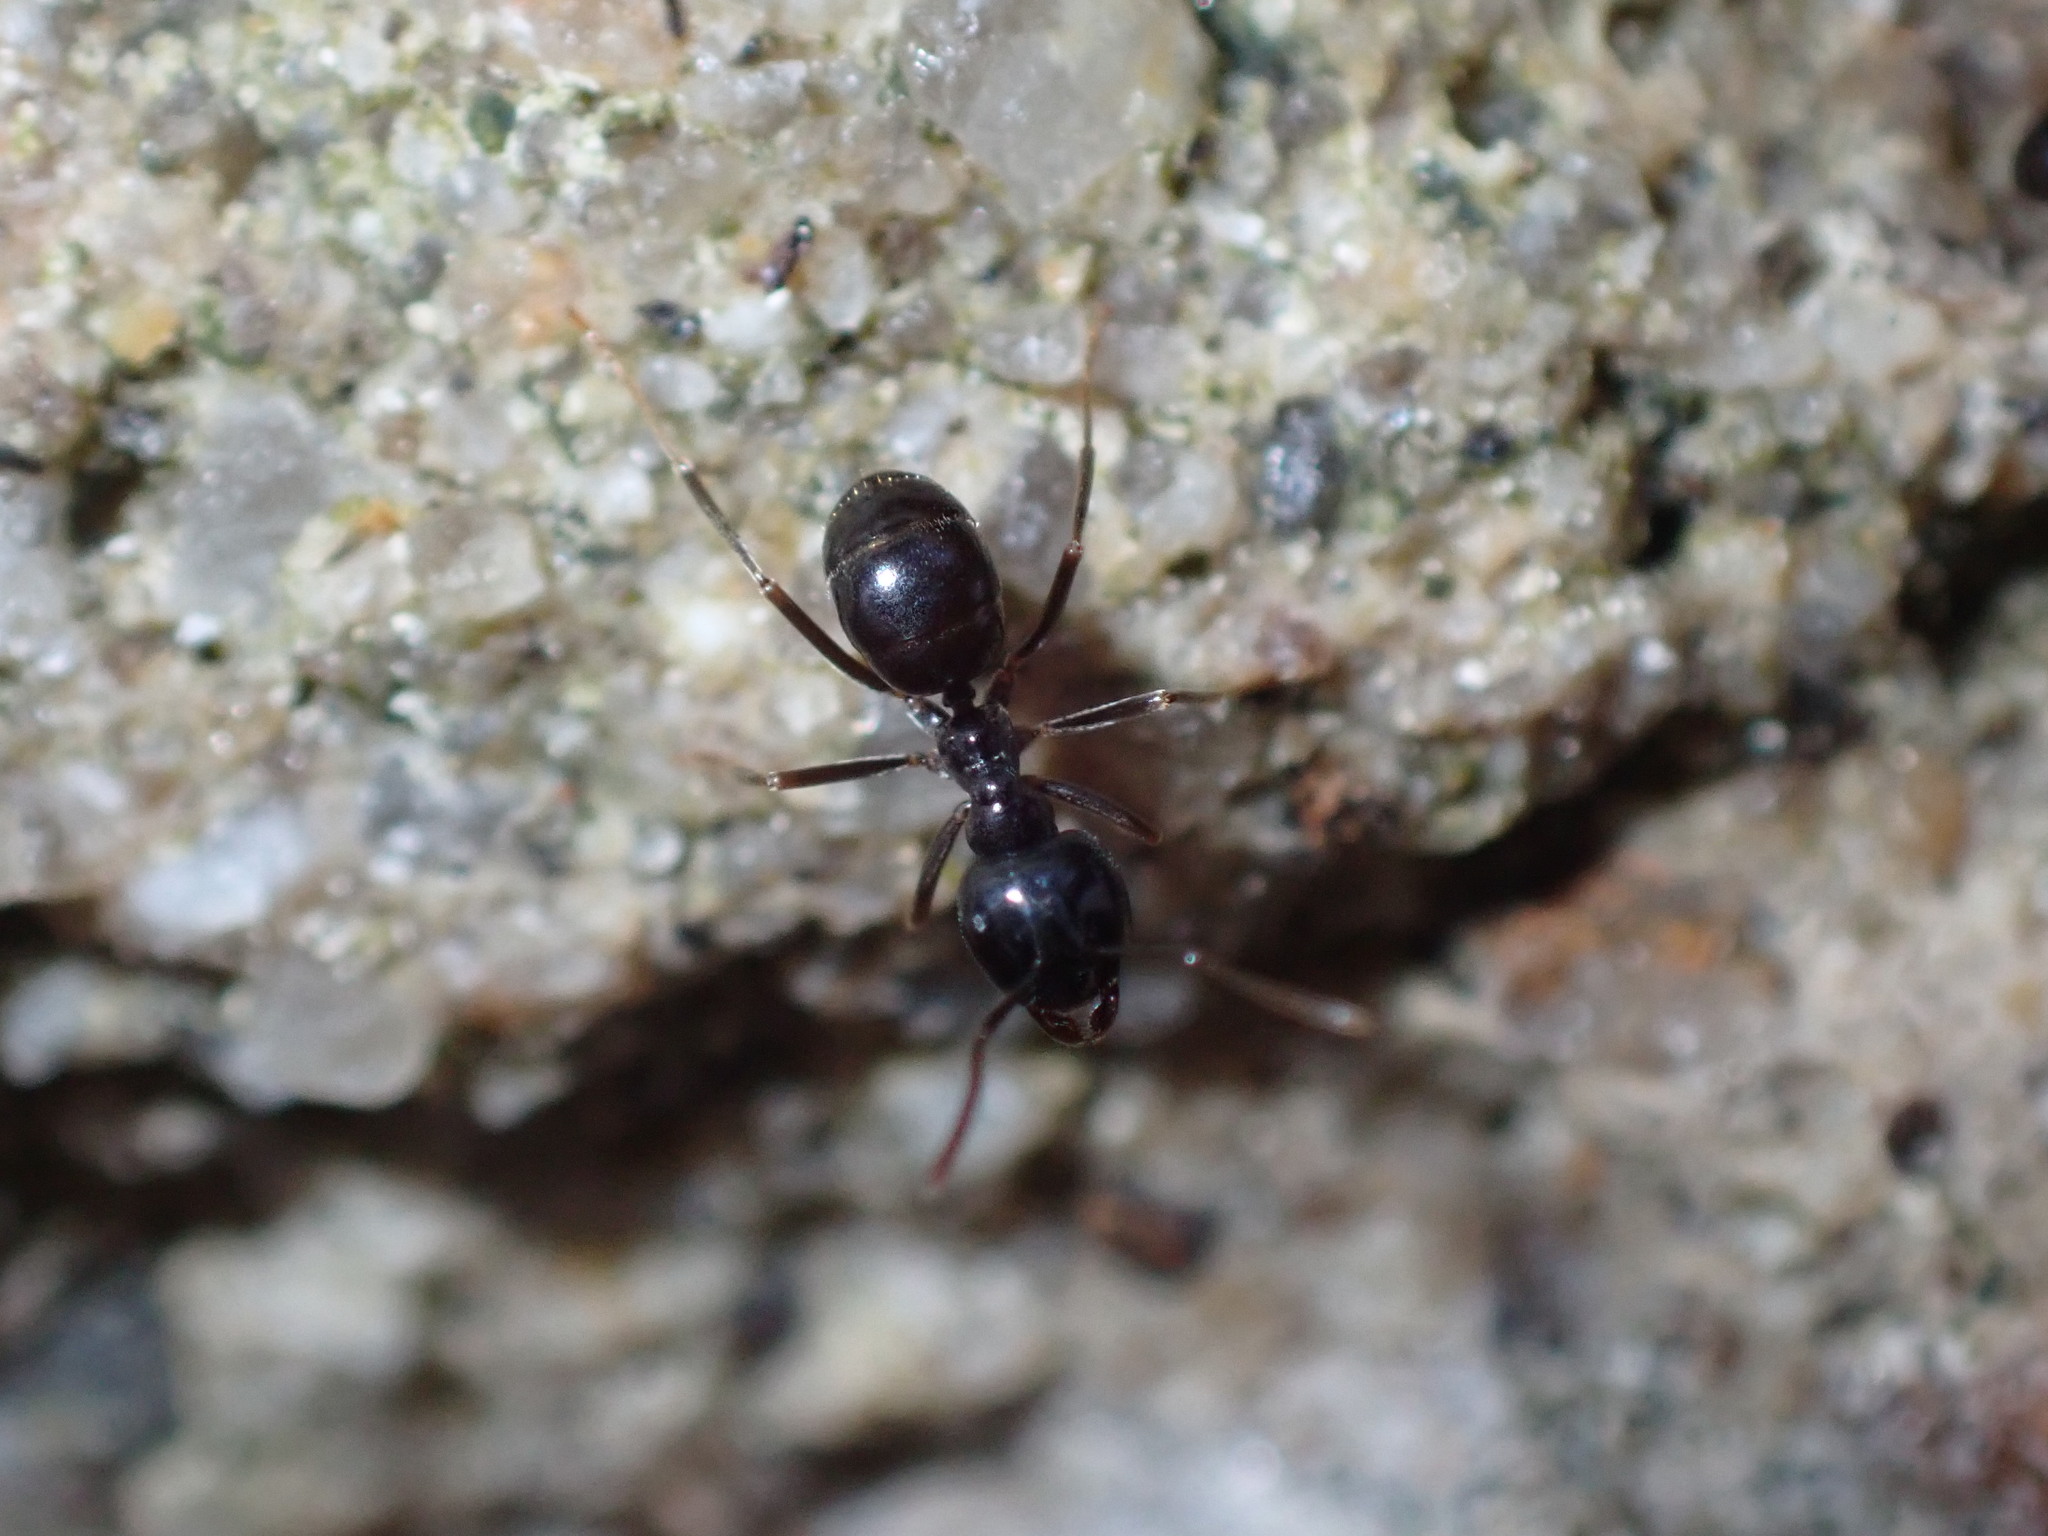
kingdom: Animalia
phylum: Arthropoda
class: Insecta
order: Hymenoptera
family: Formicidae
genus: Lasius
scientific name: Lasius fuliginosus
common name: Jet ant
